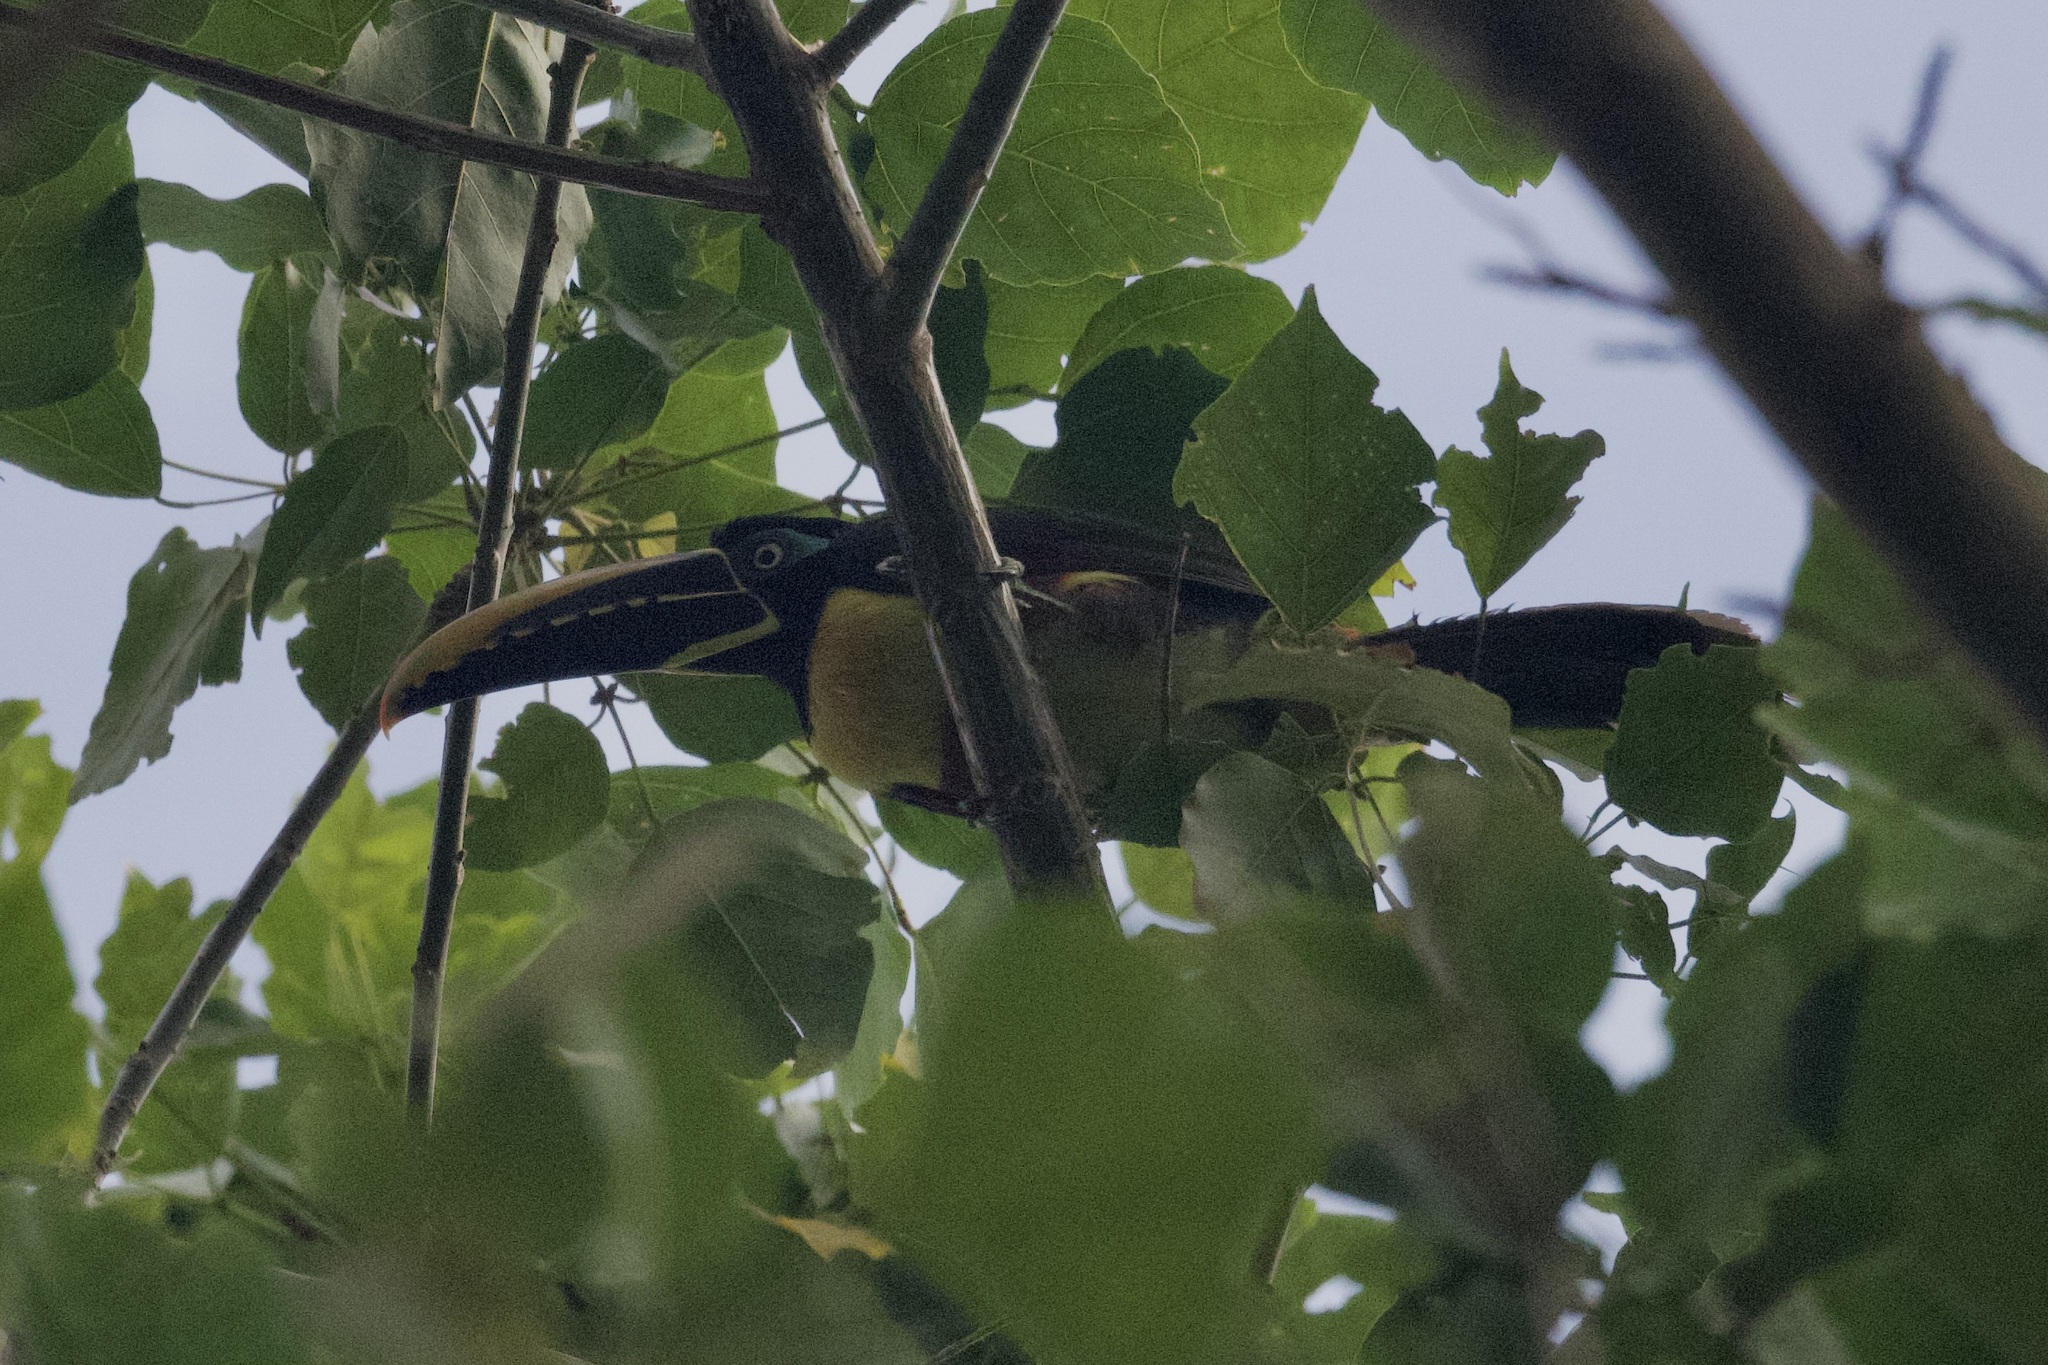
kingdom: Animalia
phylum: Chordata
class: Aves
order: Piciformes
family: Ramphastidae
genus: Pteroglossus
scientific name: Pteroglossus castanotis
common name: Chestnut-eared aracari
